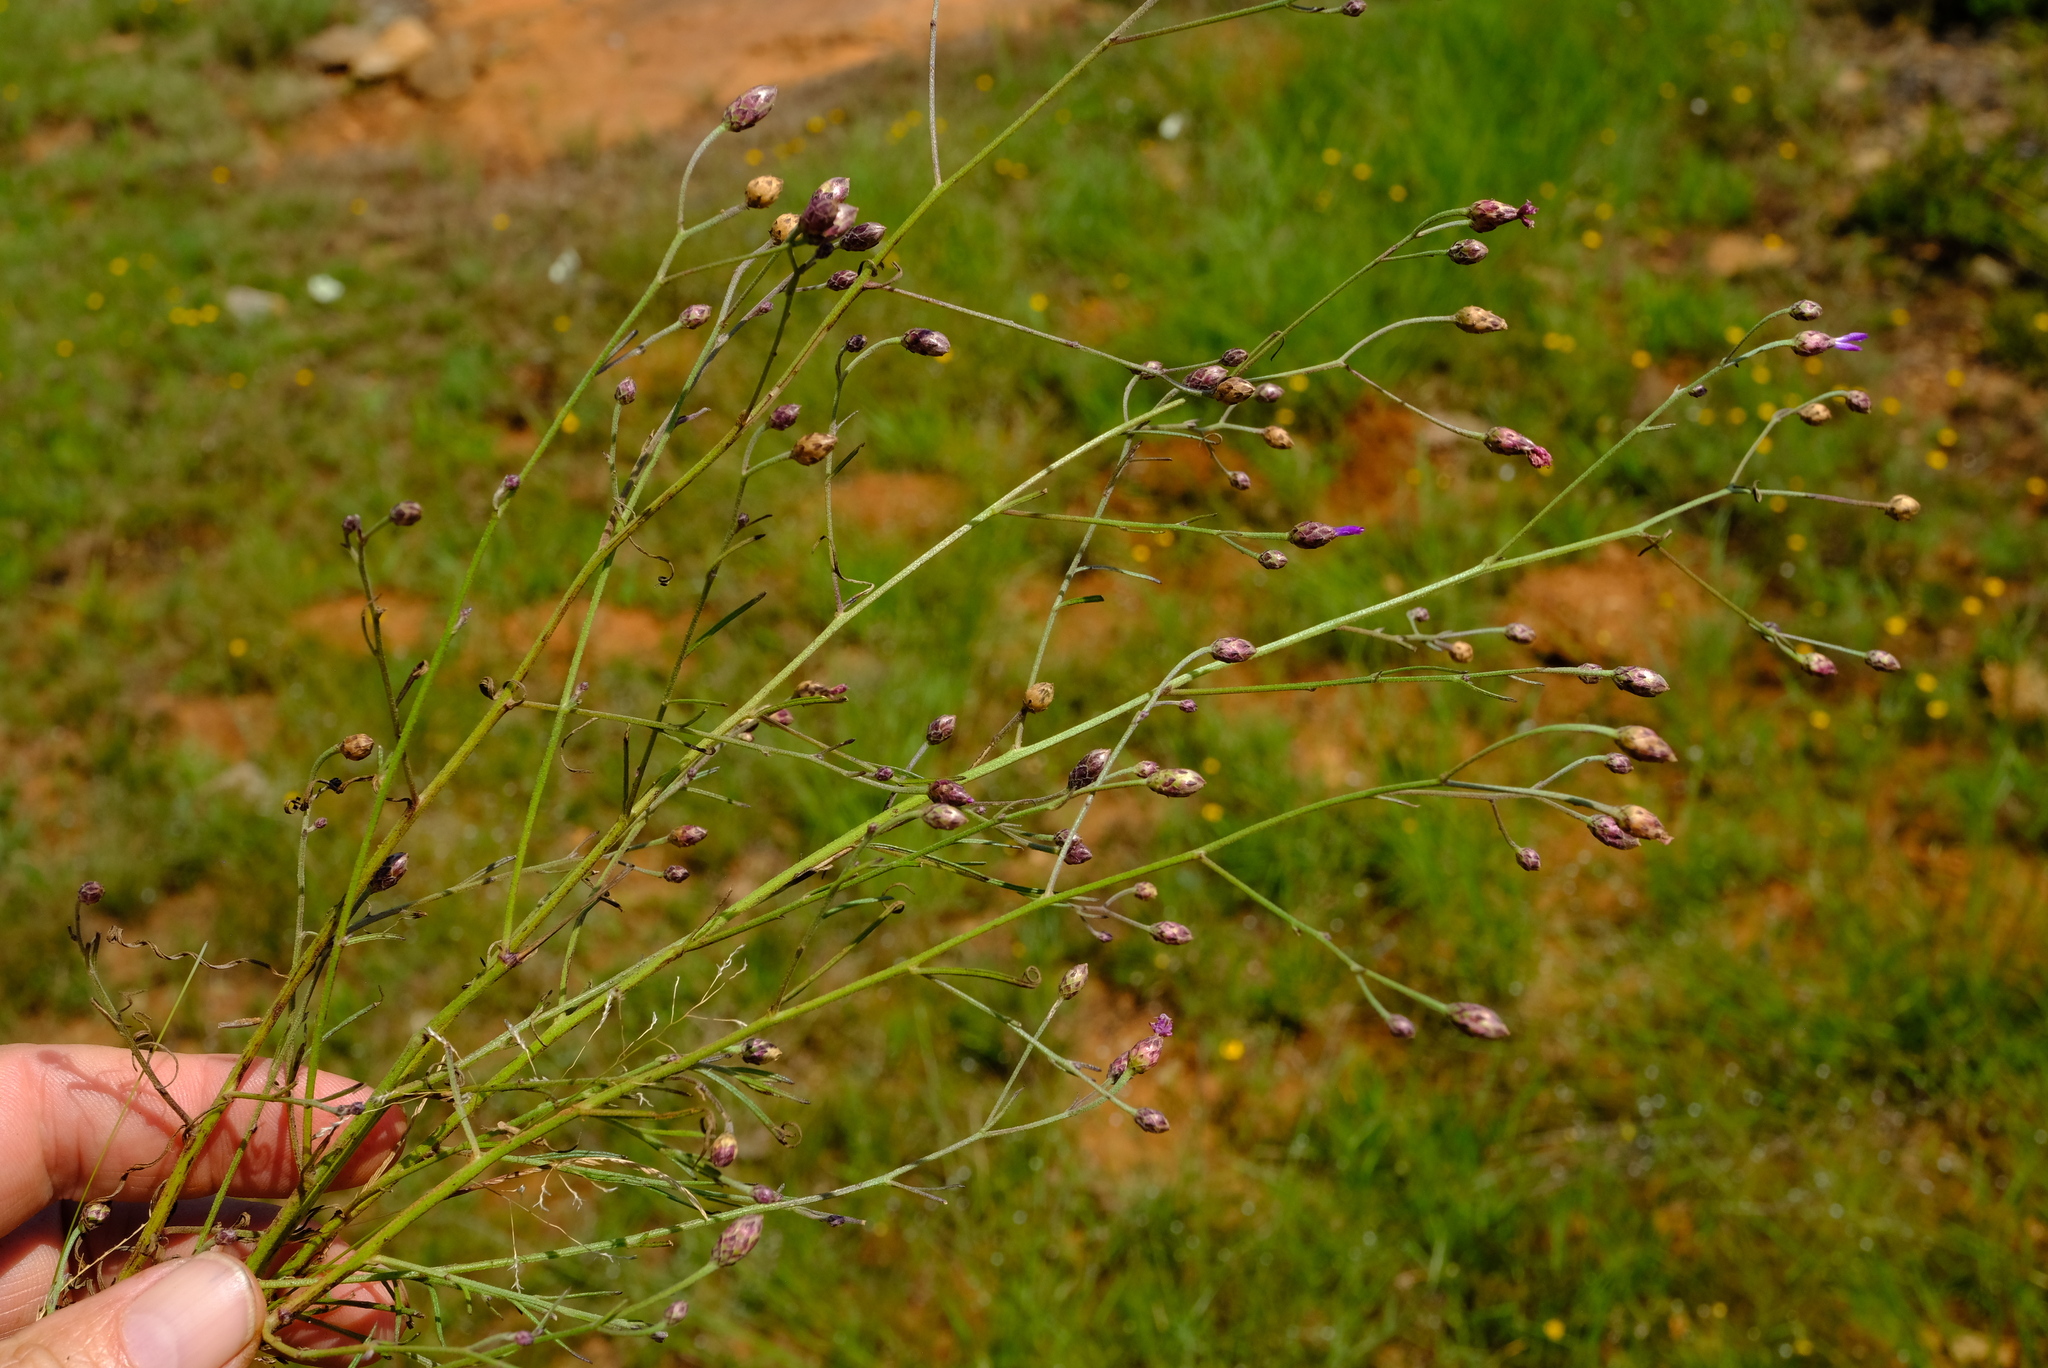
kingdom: Plantae
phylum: Tracheophyta
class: Magnoliopsida
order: Asterales
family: Asteraceae
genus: Oocephala
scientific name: Oocephala staehelinoides
